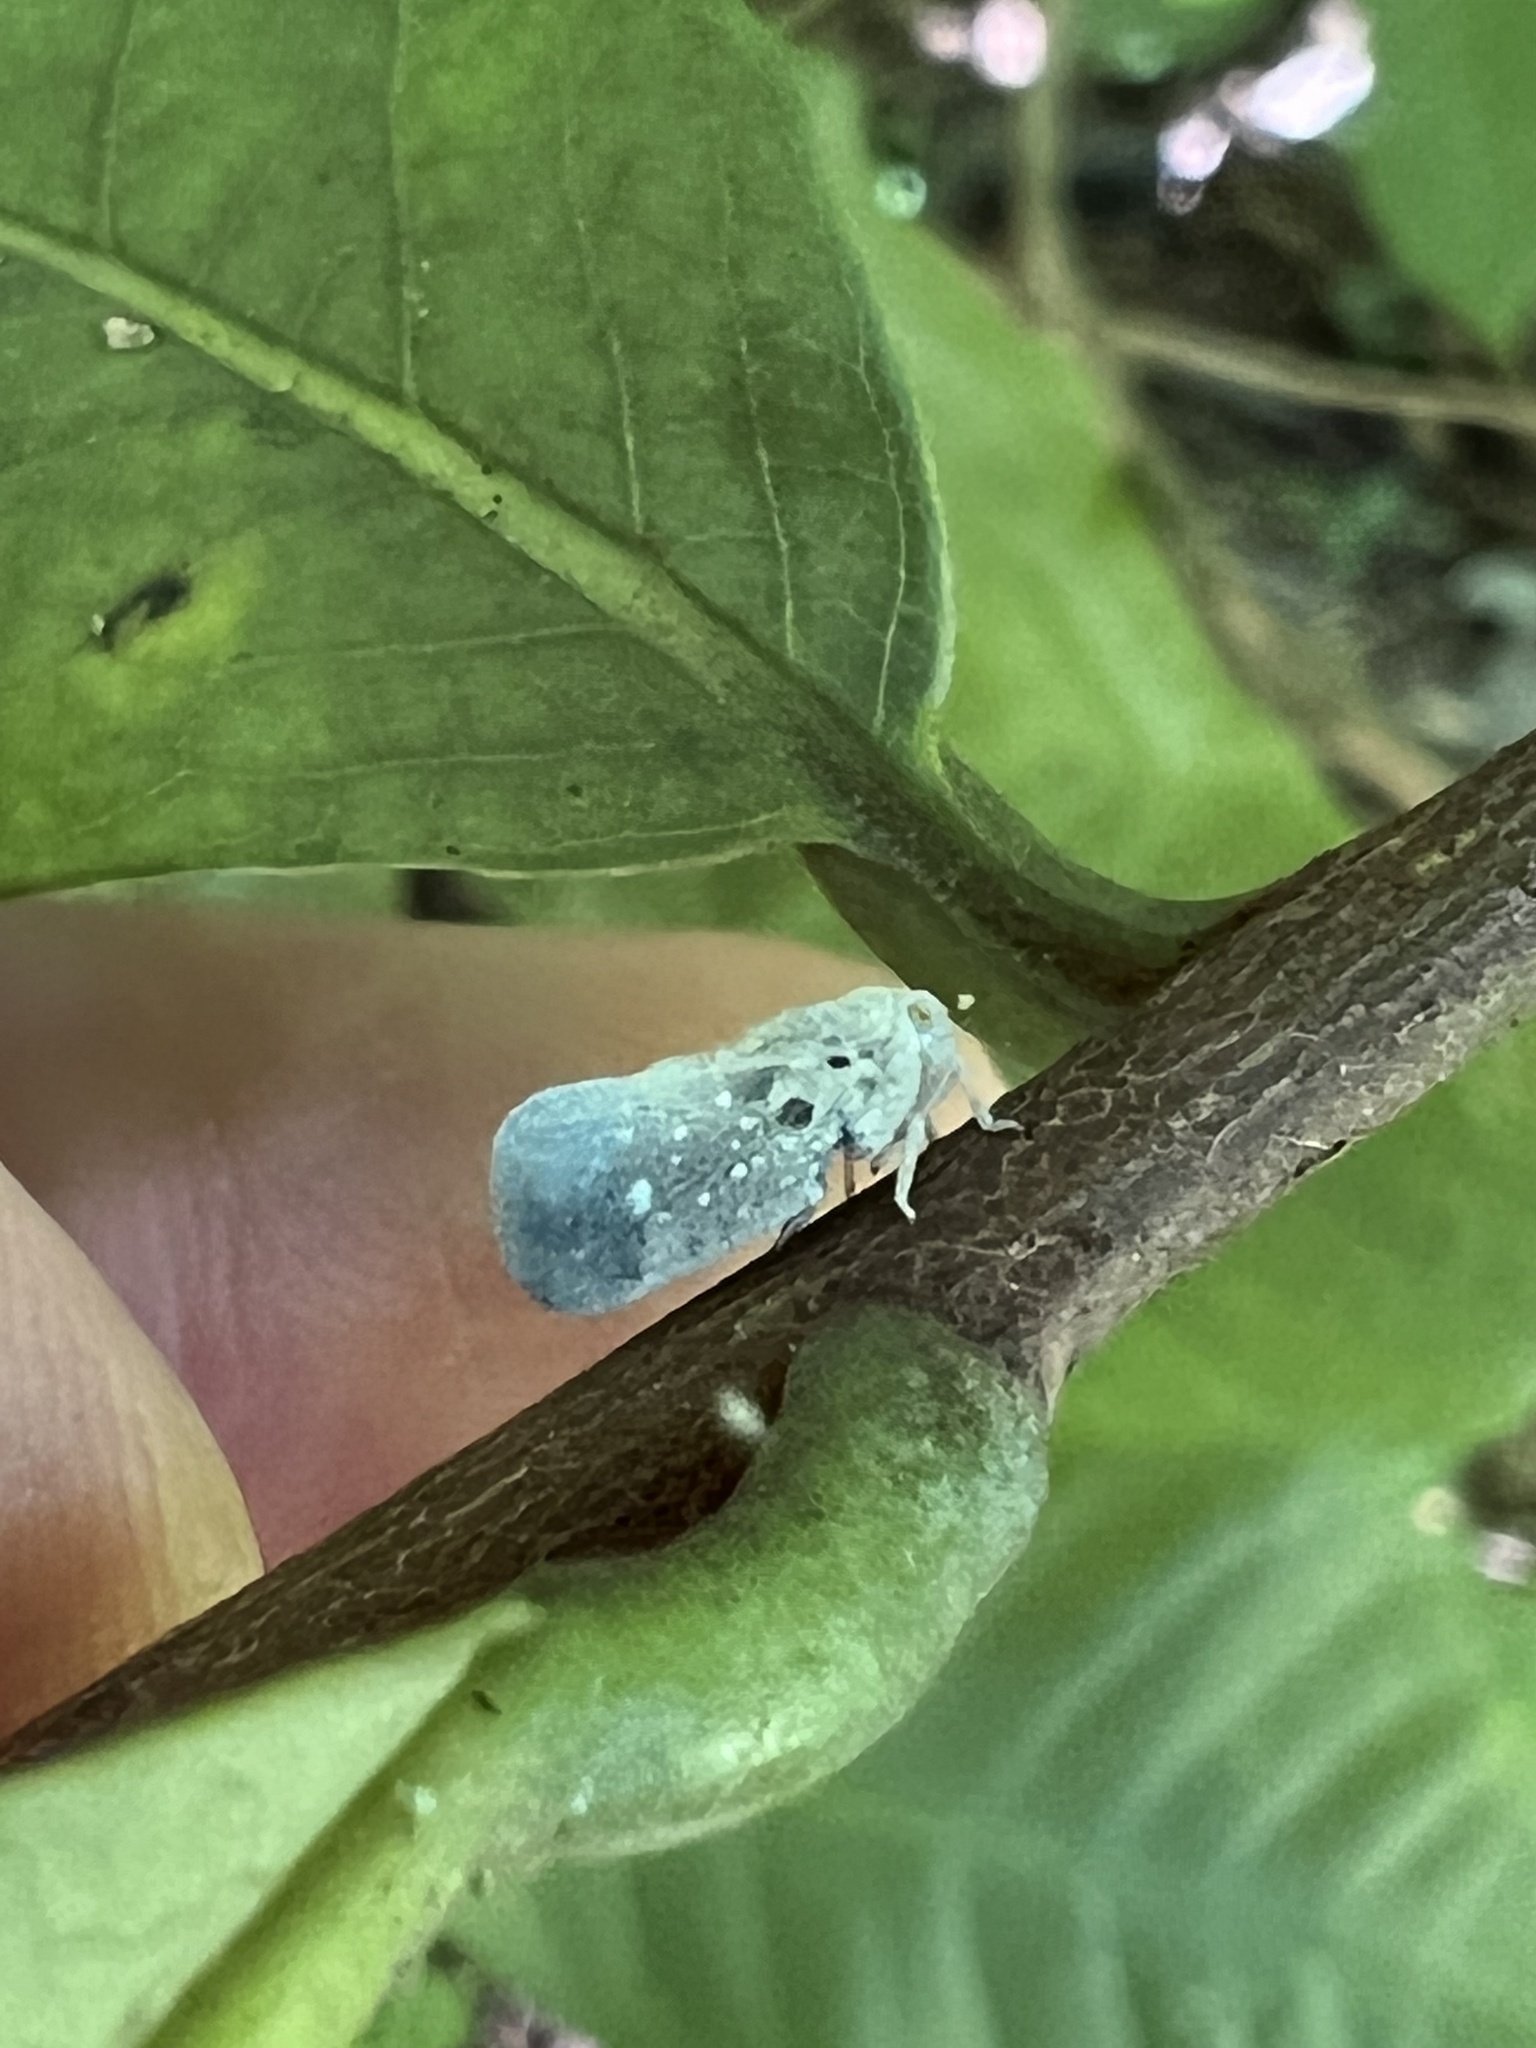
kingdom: Animalia
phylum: Arthropoda
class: Insecta
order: Hemiptera
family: Flatidae
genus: Metcalfa
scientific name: Metcalfa pruinosa
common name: Citrus flatid planthopper
